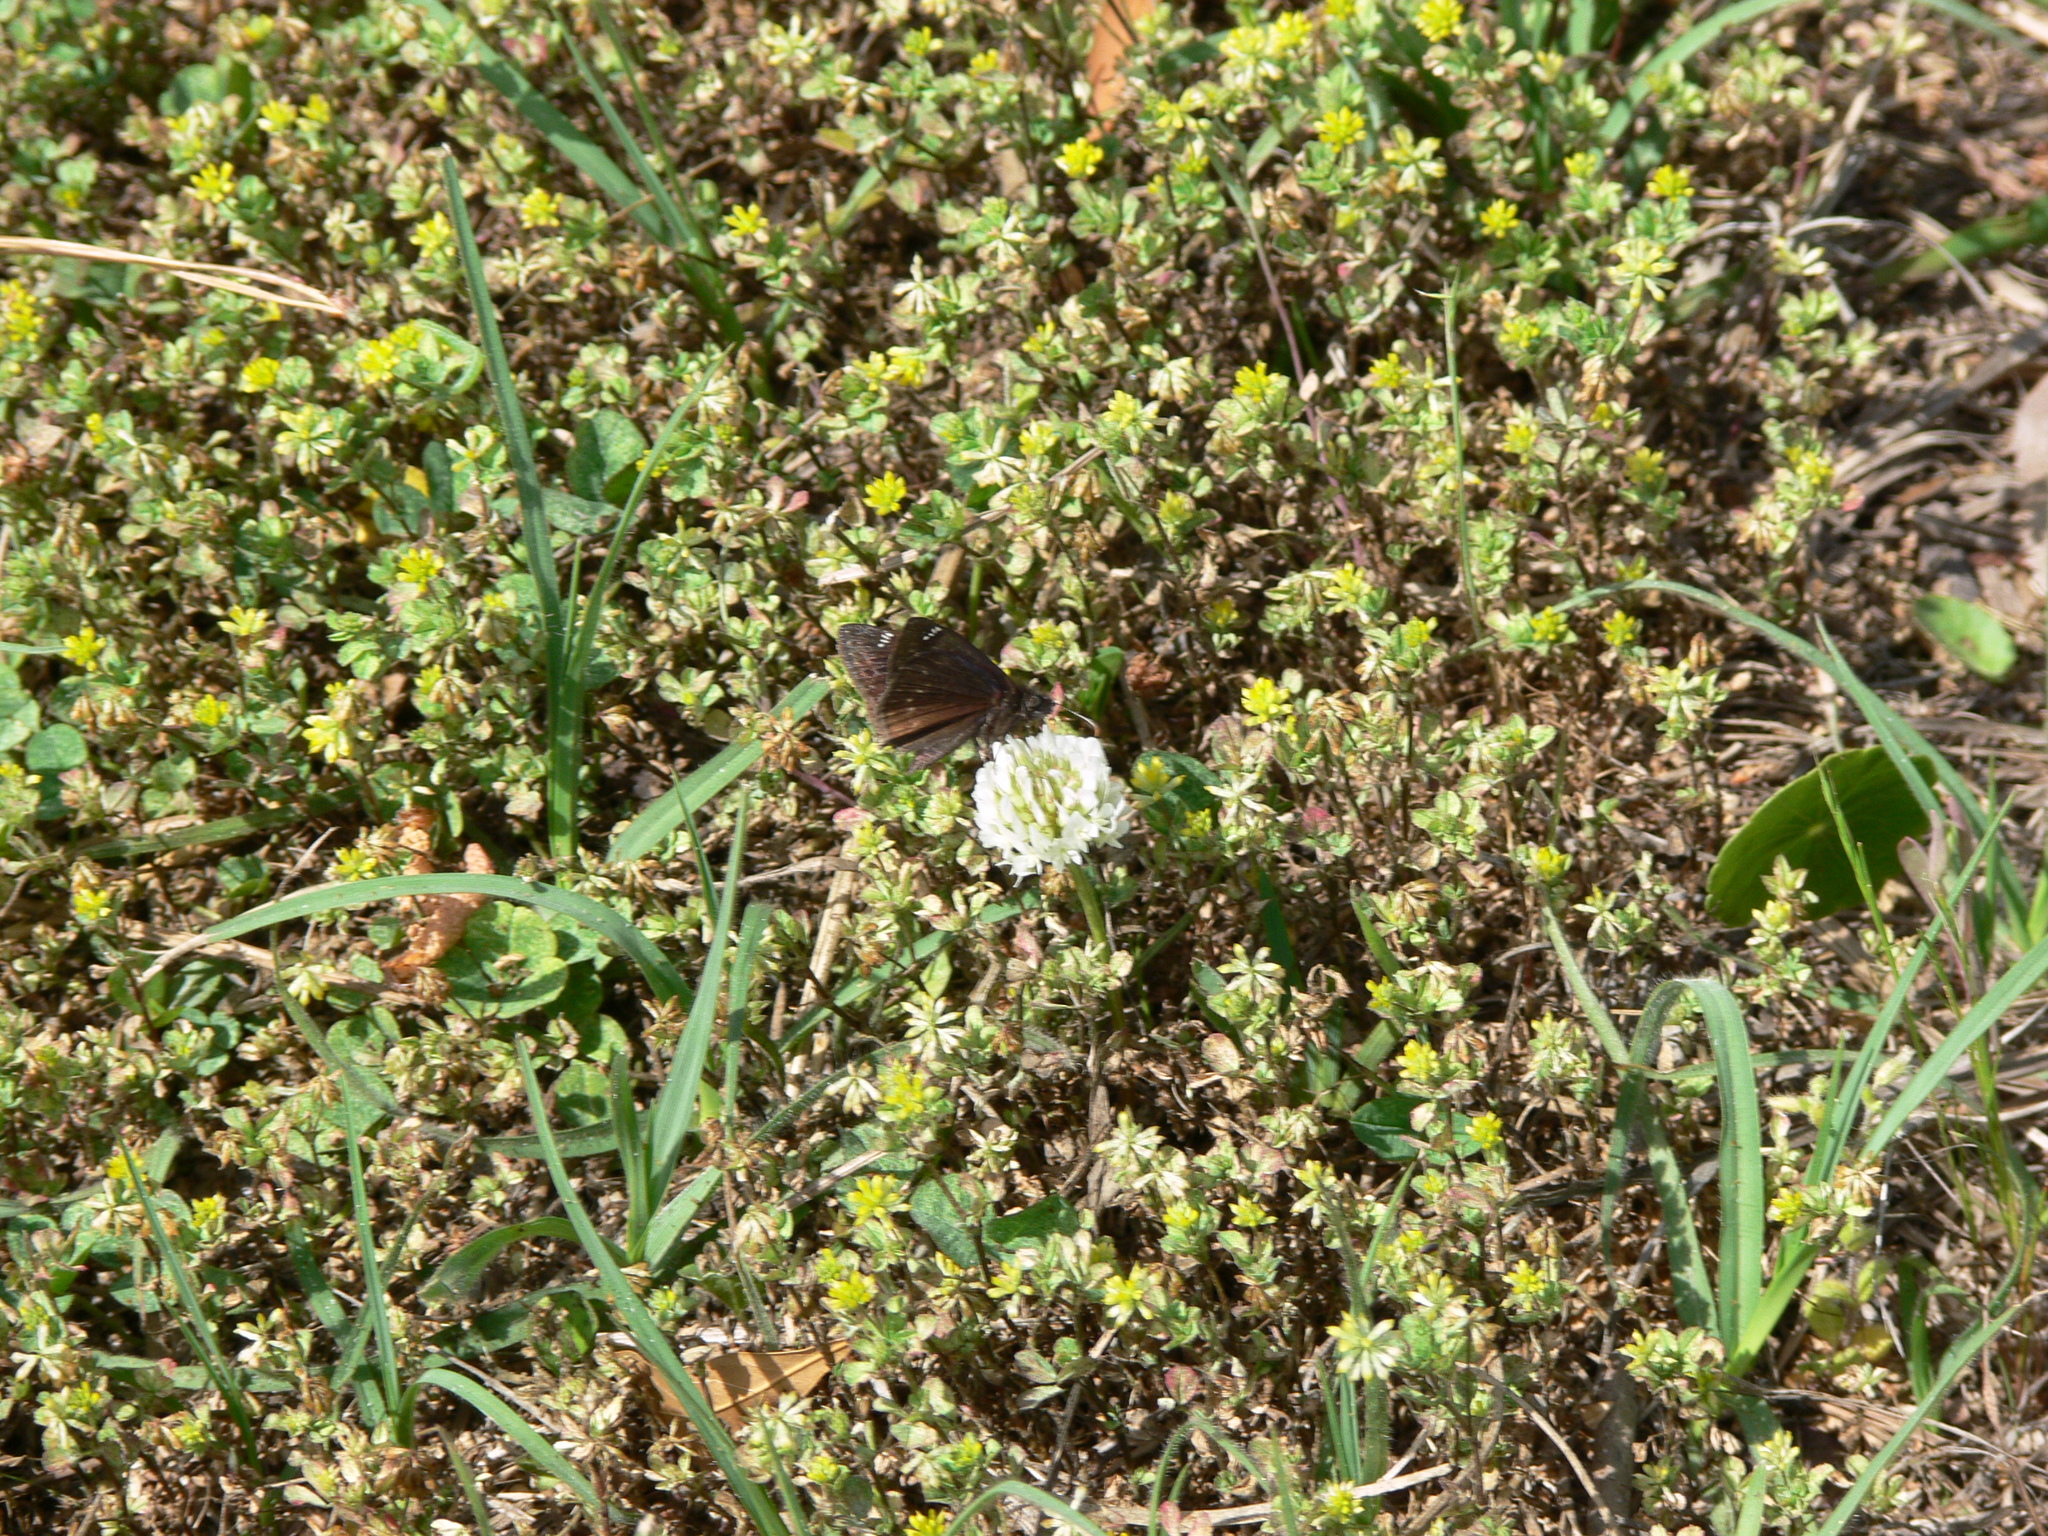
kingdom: Animalia
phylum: Arthropoda
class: Insecta
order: Lepidoptera
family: Hesperiidae
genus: Erynnis
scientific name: Erynnis zarucco
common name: Zarucco duskywing
